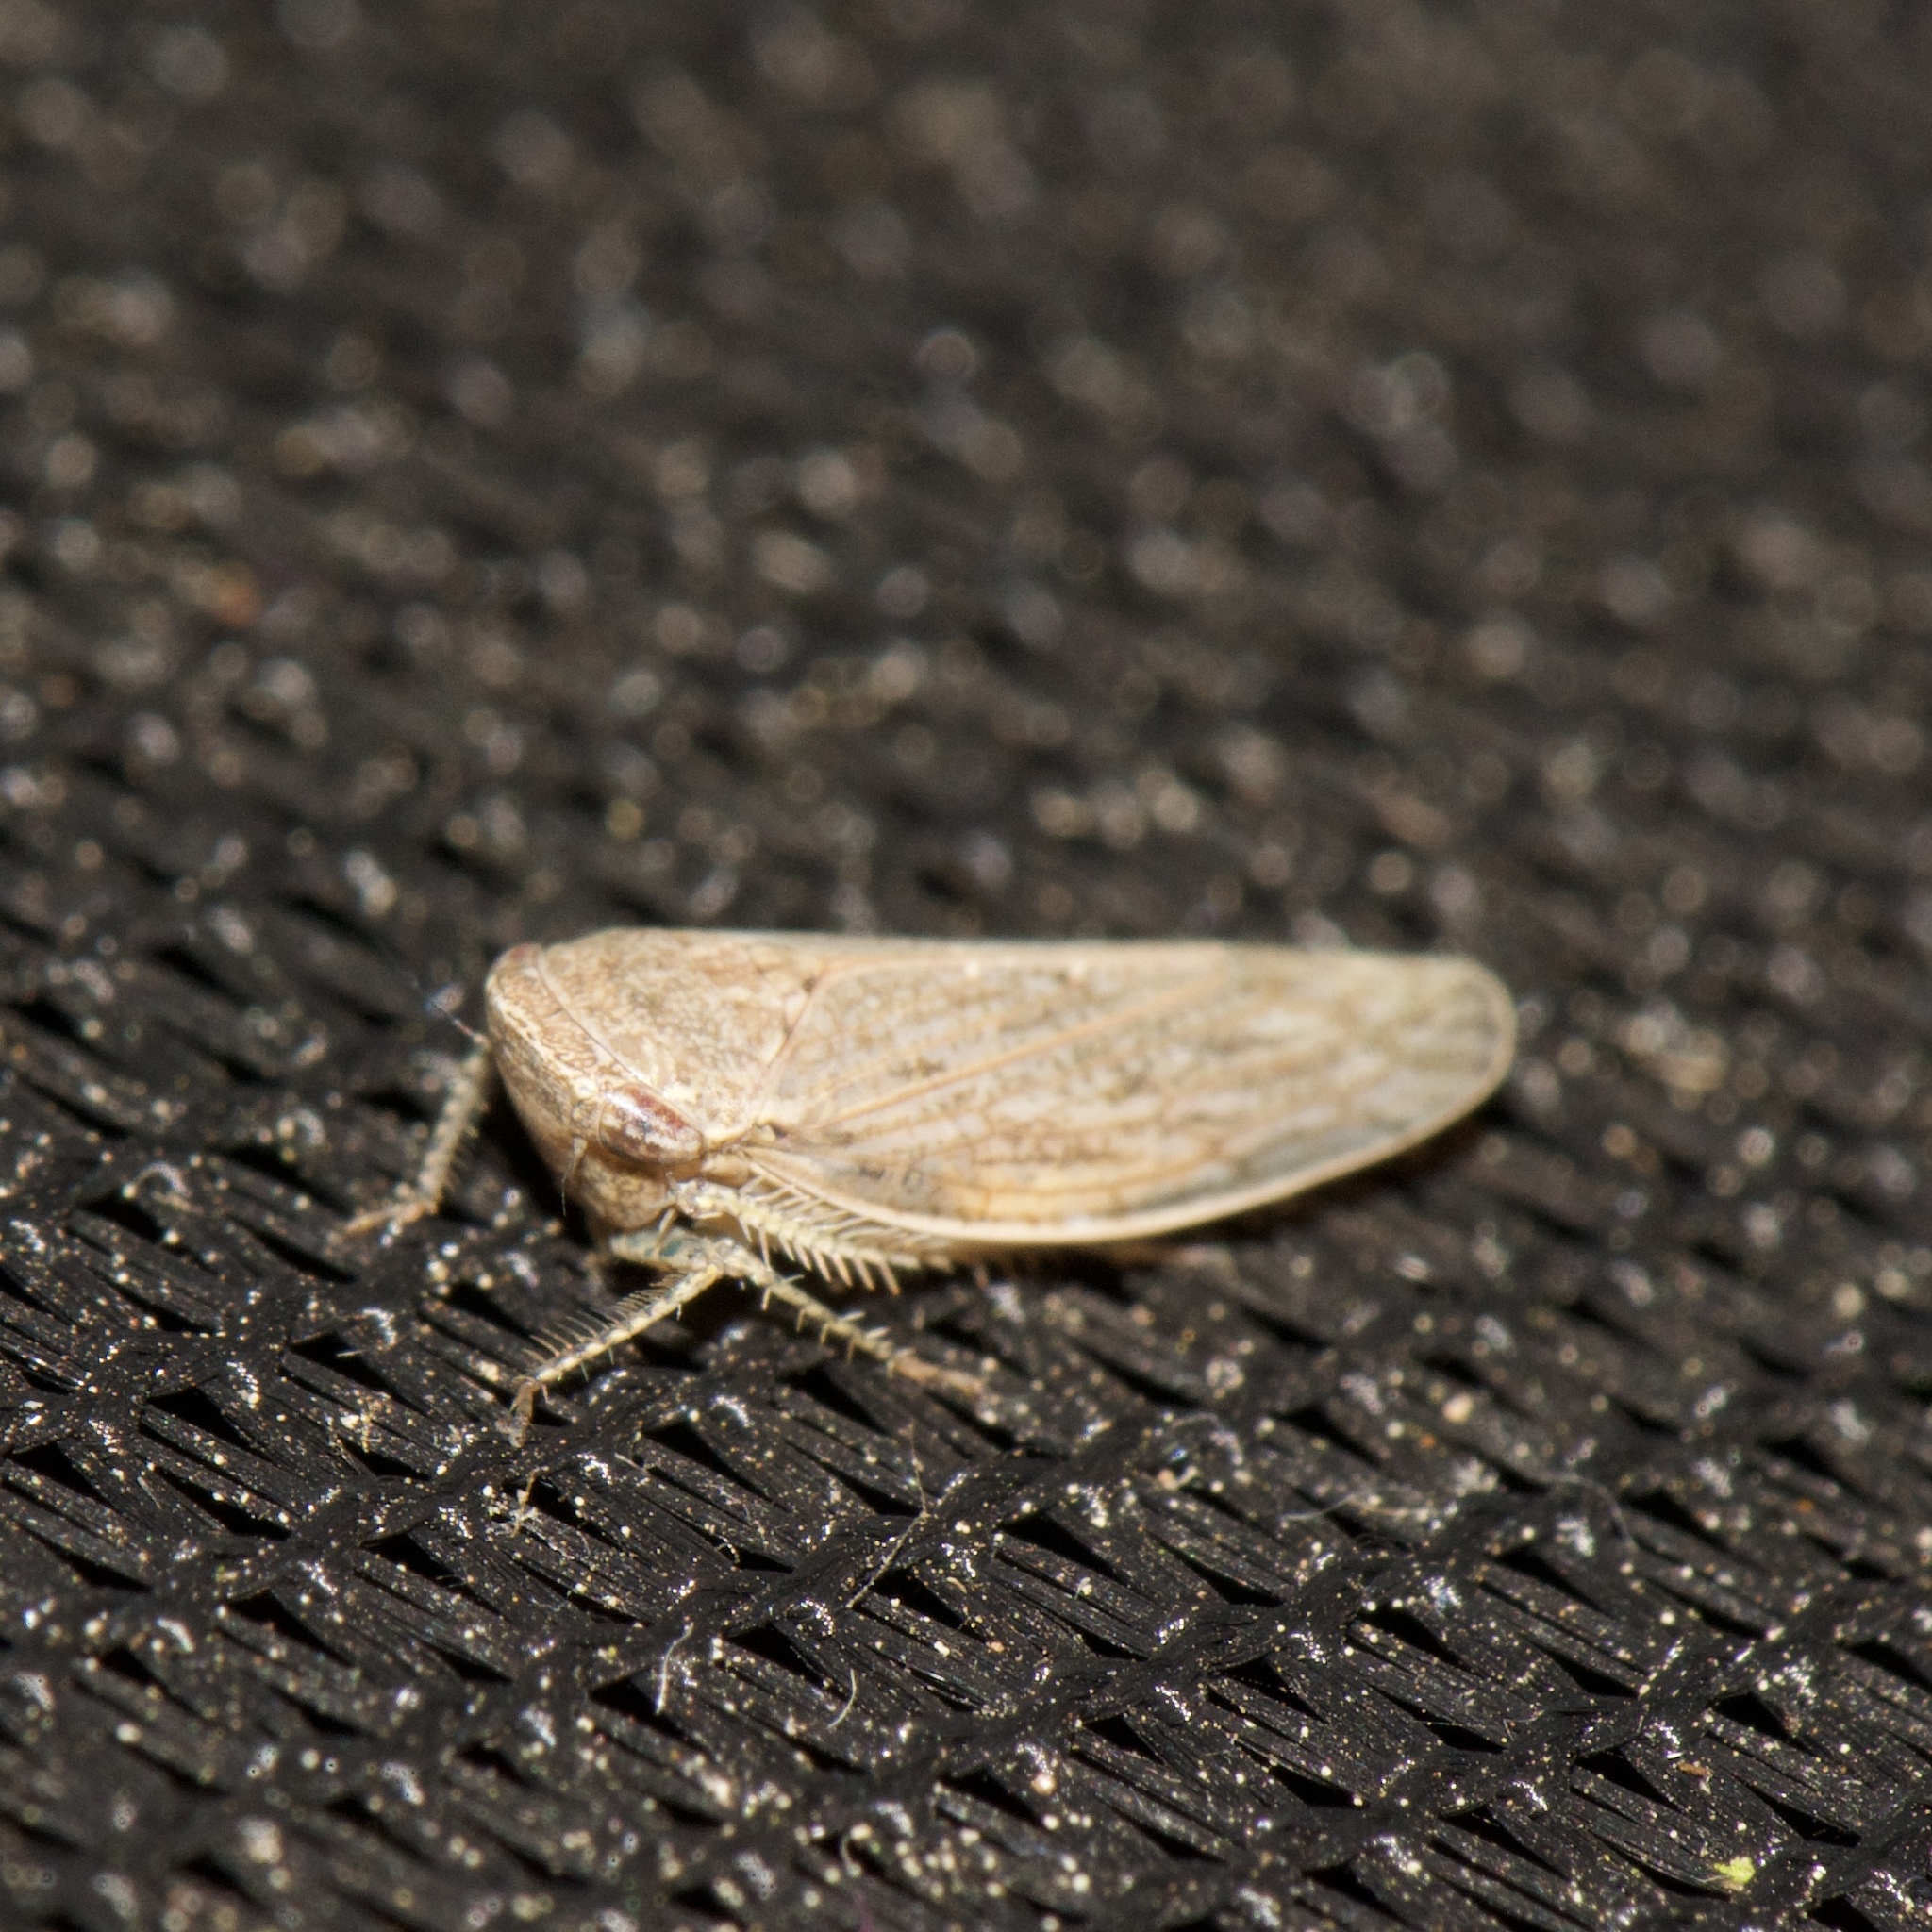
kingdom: Animalia
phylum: Arthropoda
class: Insecta
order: Hemiptera
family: Cicadellidae
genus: Paraphlepsius
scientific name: Paraphlepsius planus
